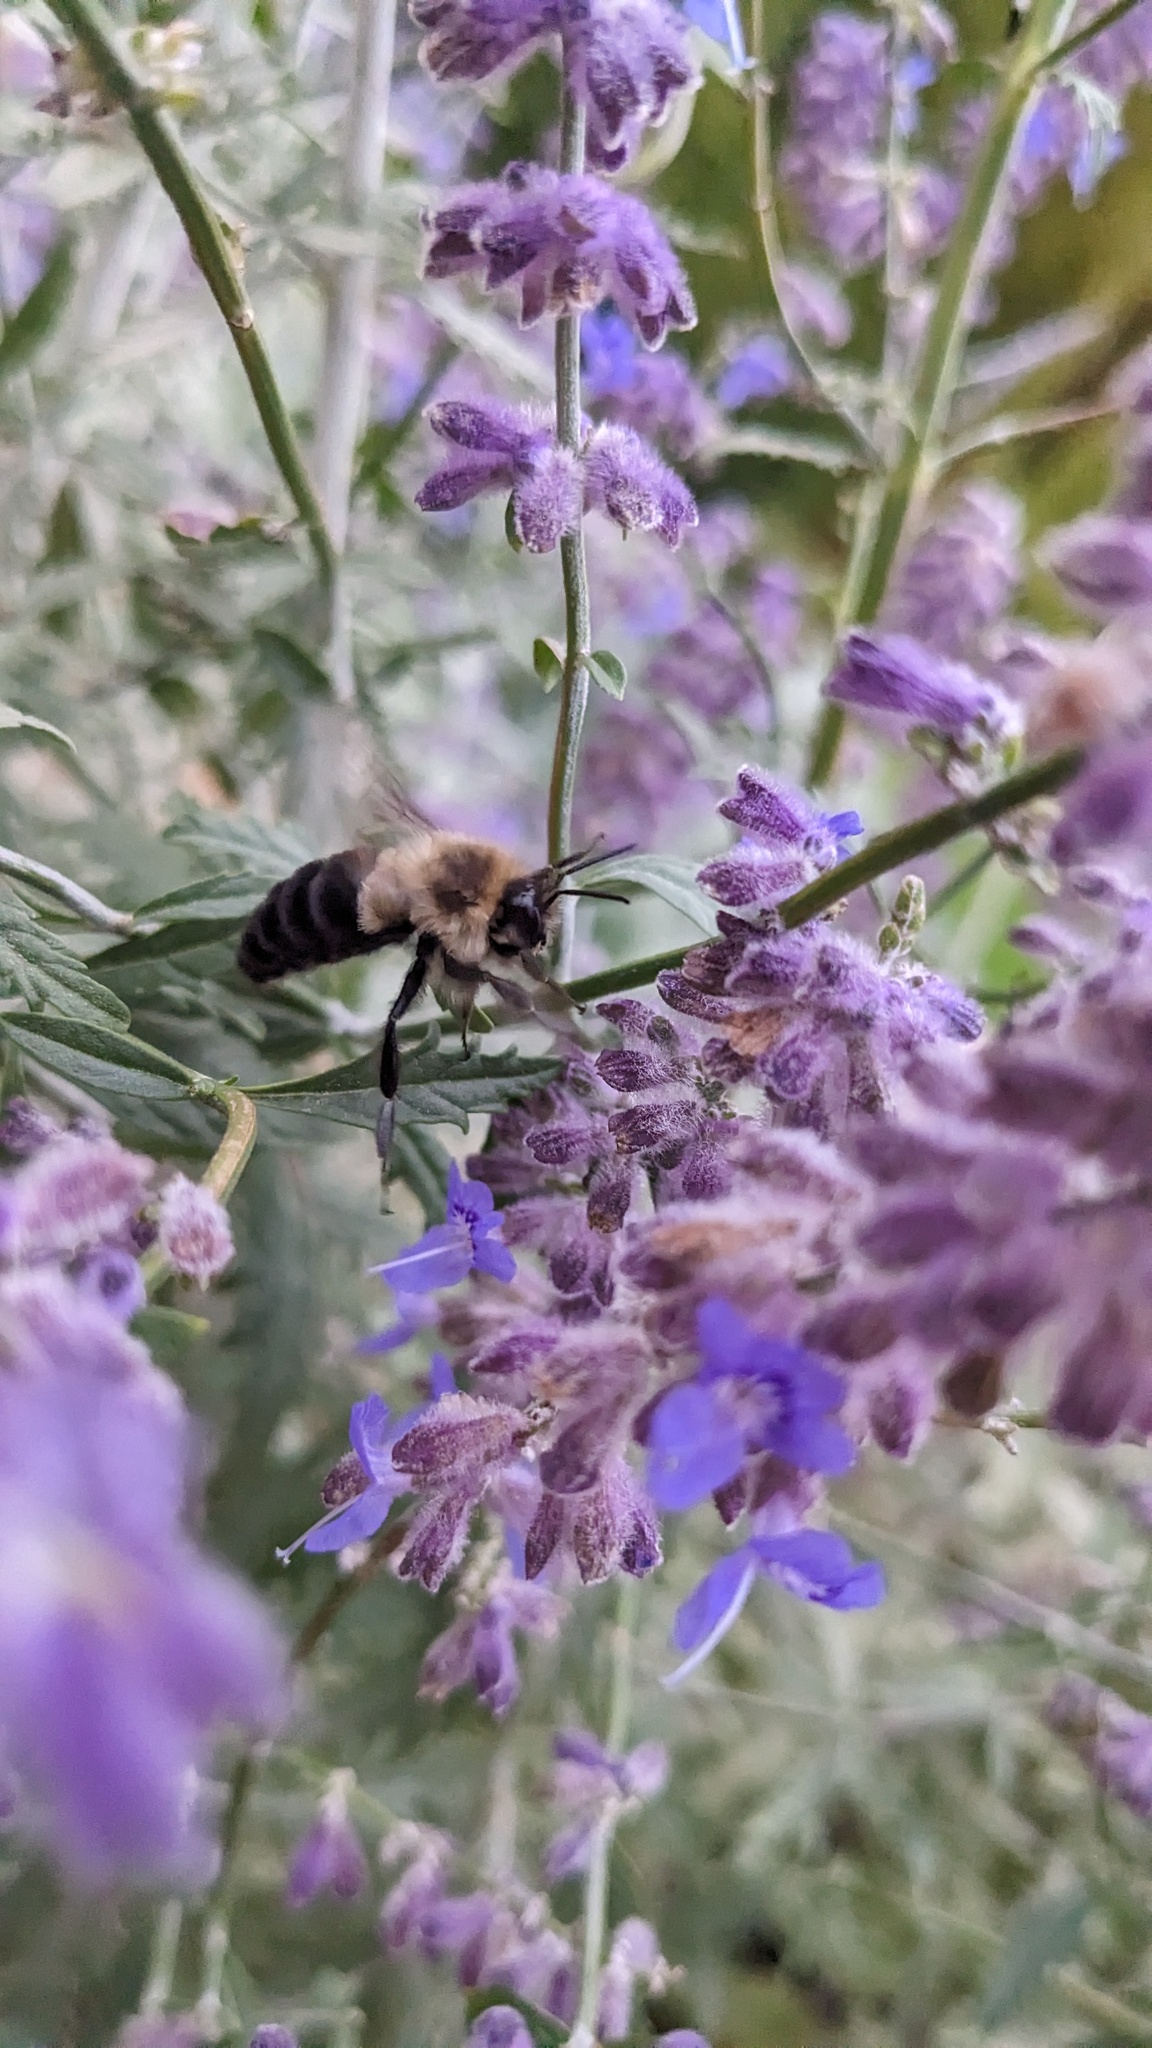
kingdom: Animalia
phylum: Arthropoda
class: Insecta
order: Hymenoptera
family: Apidae
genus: Bombus
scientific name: Bombus impatiens
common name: Common eastern bumble bee
